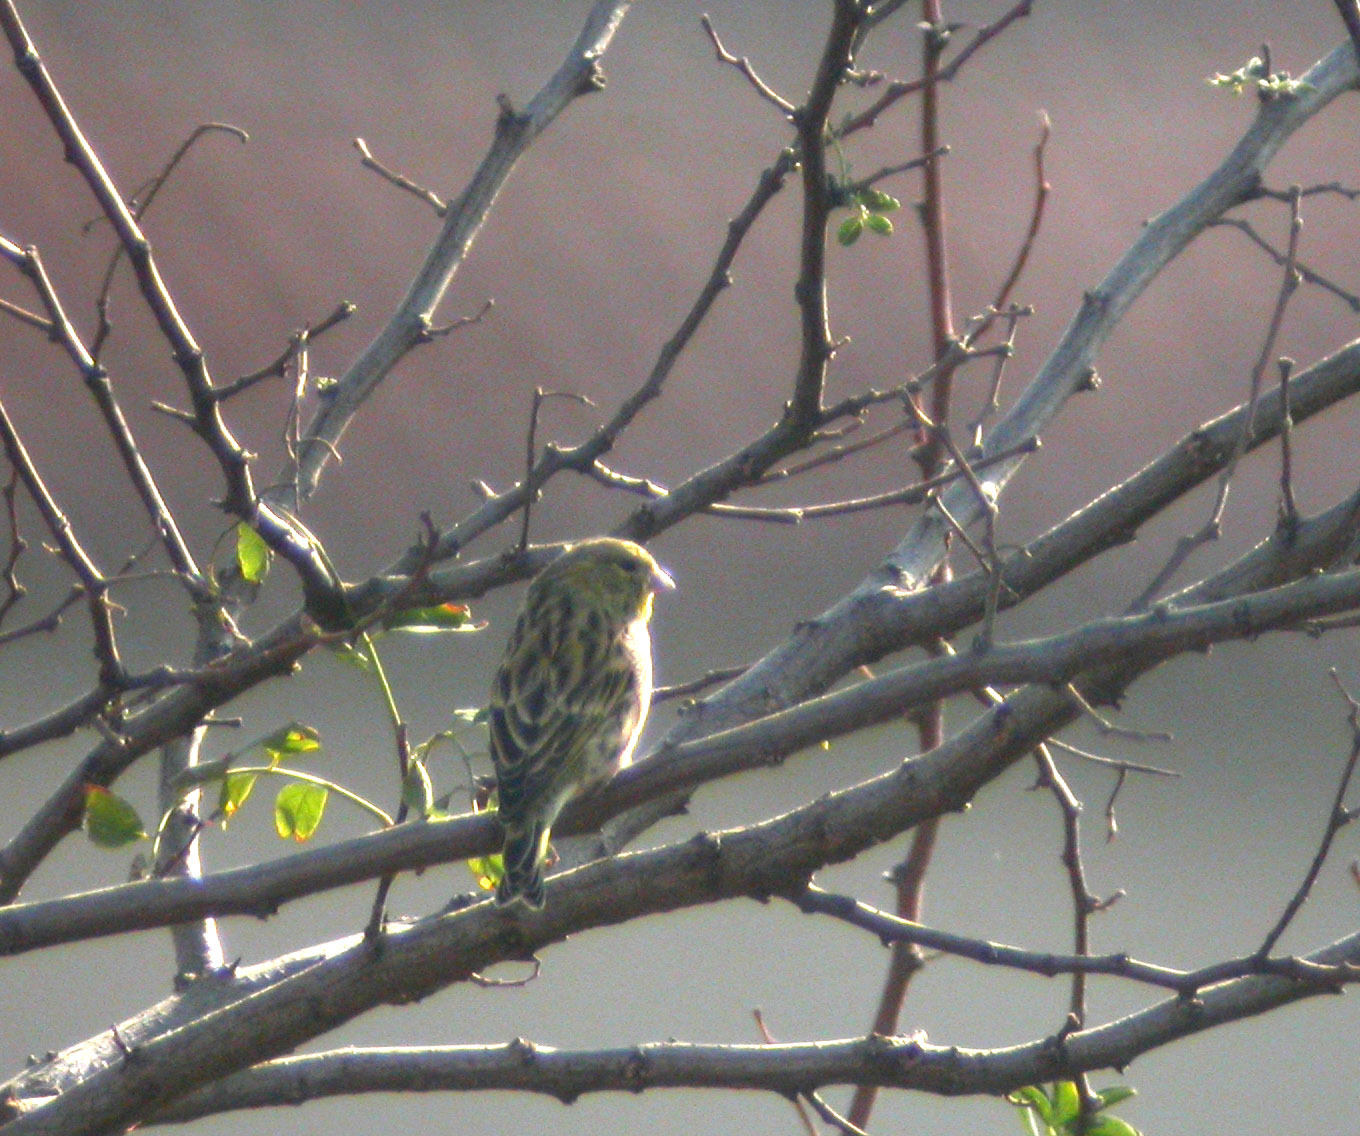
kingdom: Animalia
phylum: Chordata
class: Aves
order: Passeriformes
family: Fringillidae
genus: Serinus
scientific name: Serinus serinus
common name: European serin
